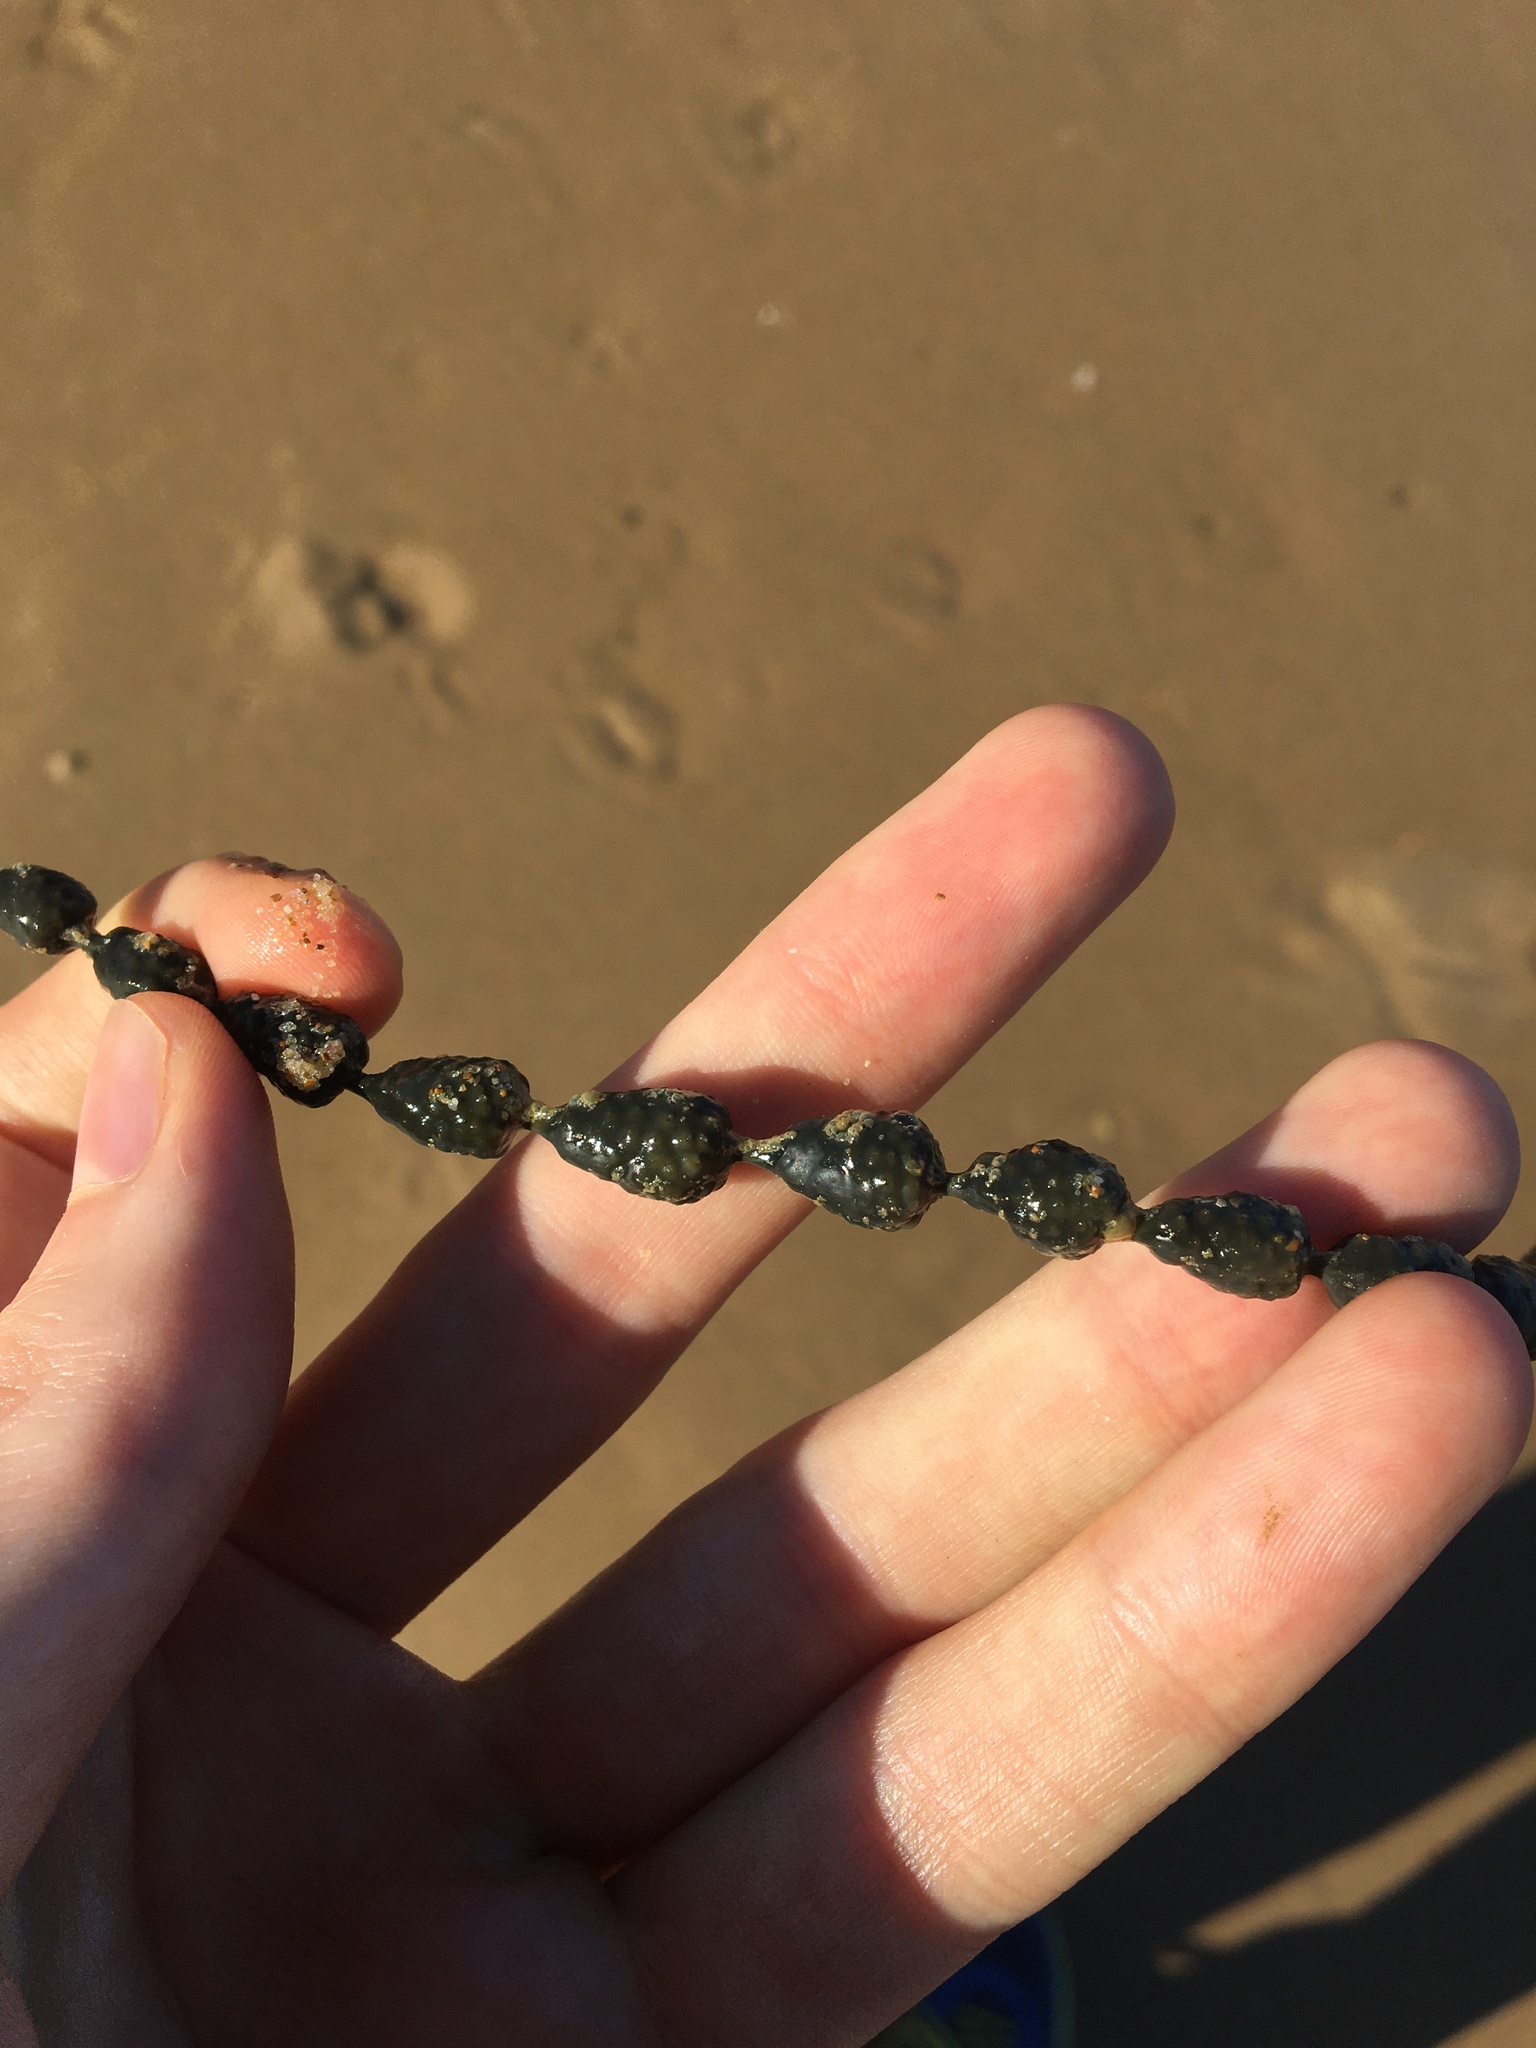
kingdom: Chromista
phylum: Ochrophyta
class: Phaeophyceae
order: Fucales
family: Hormosiraceae
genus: Hormosira
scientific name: Hormosira banksii
